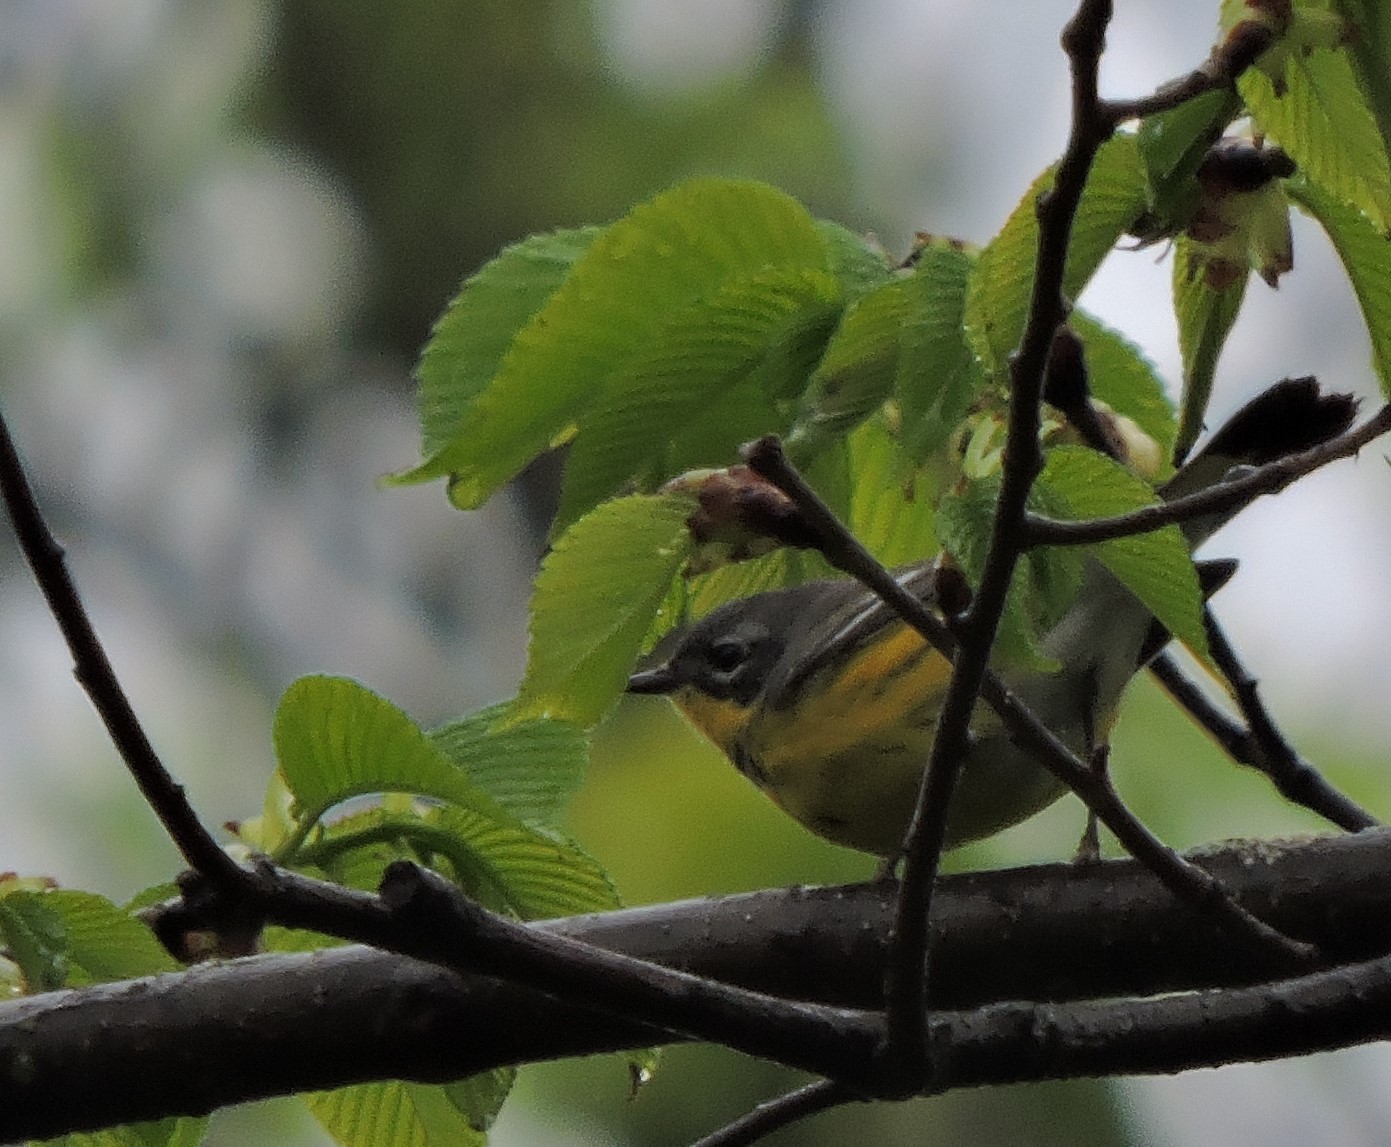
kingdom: Animalia
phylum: Chordata
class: Aves
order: Passeriformes
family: Parulidae
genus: Setophaga
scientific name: Setophaga magnolia
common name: Magnolia warbler
